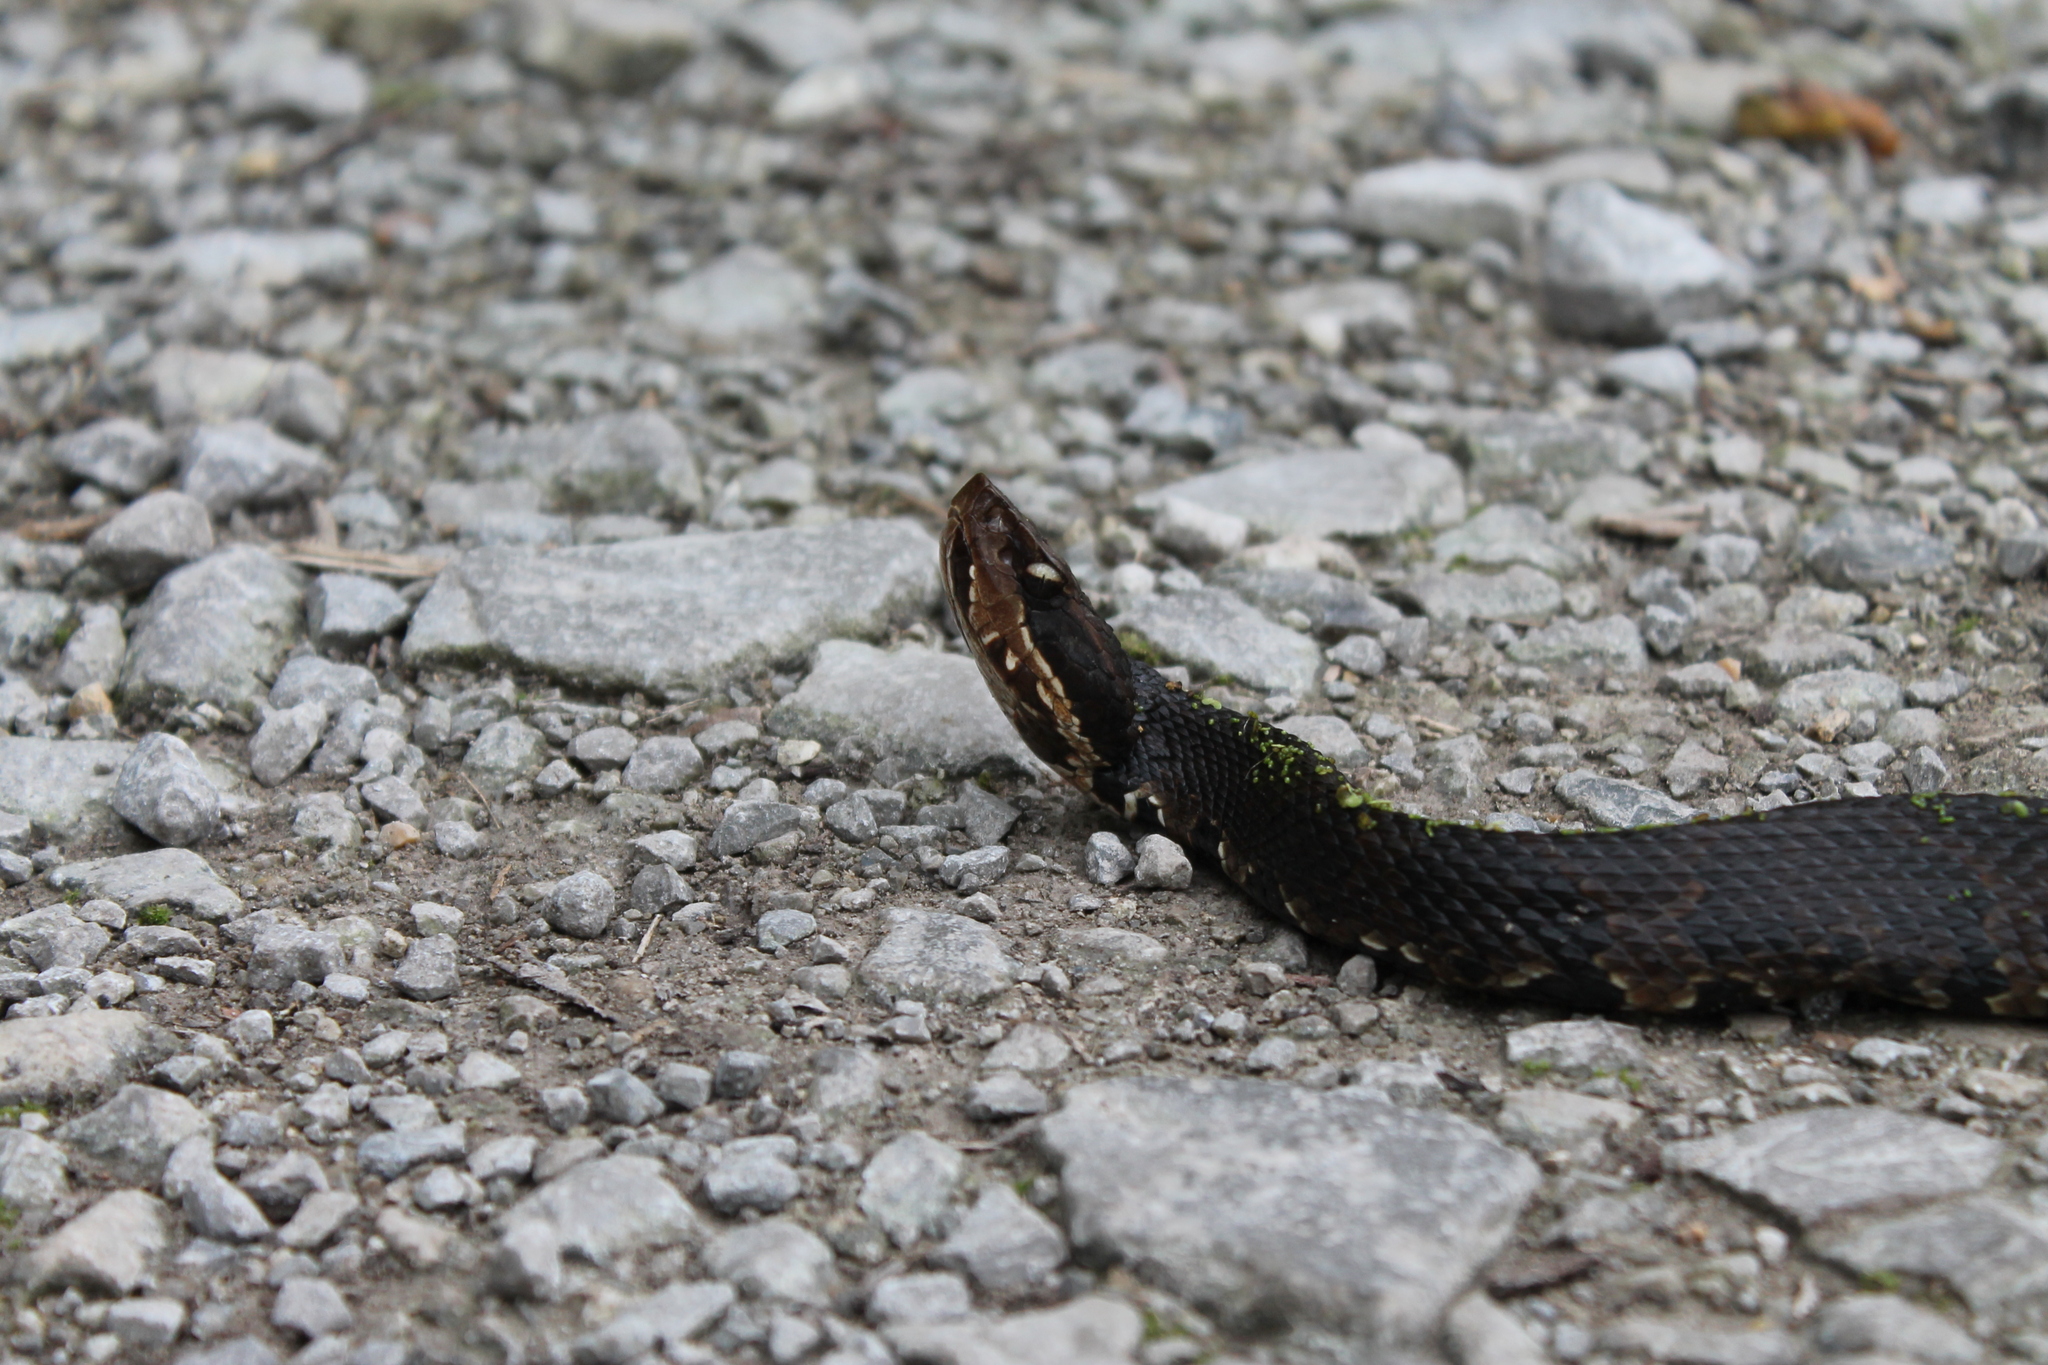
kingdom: Animalia
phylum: Chordata
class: Squamata
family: Viperidae
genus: Agkistrodon
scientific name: Agkistrodon piscivorus
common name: Cottonmouth
